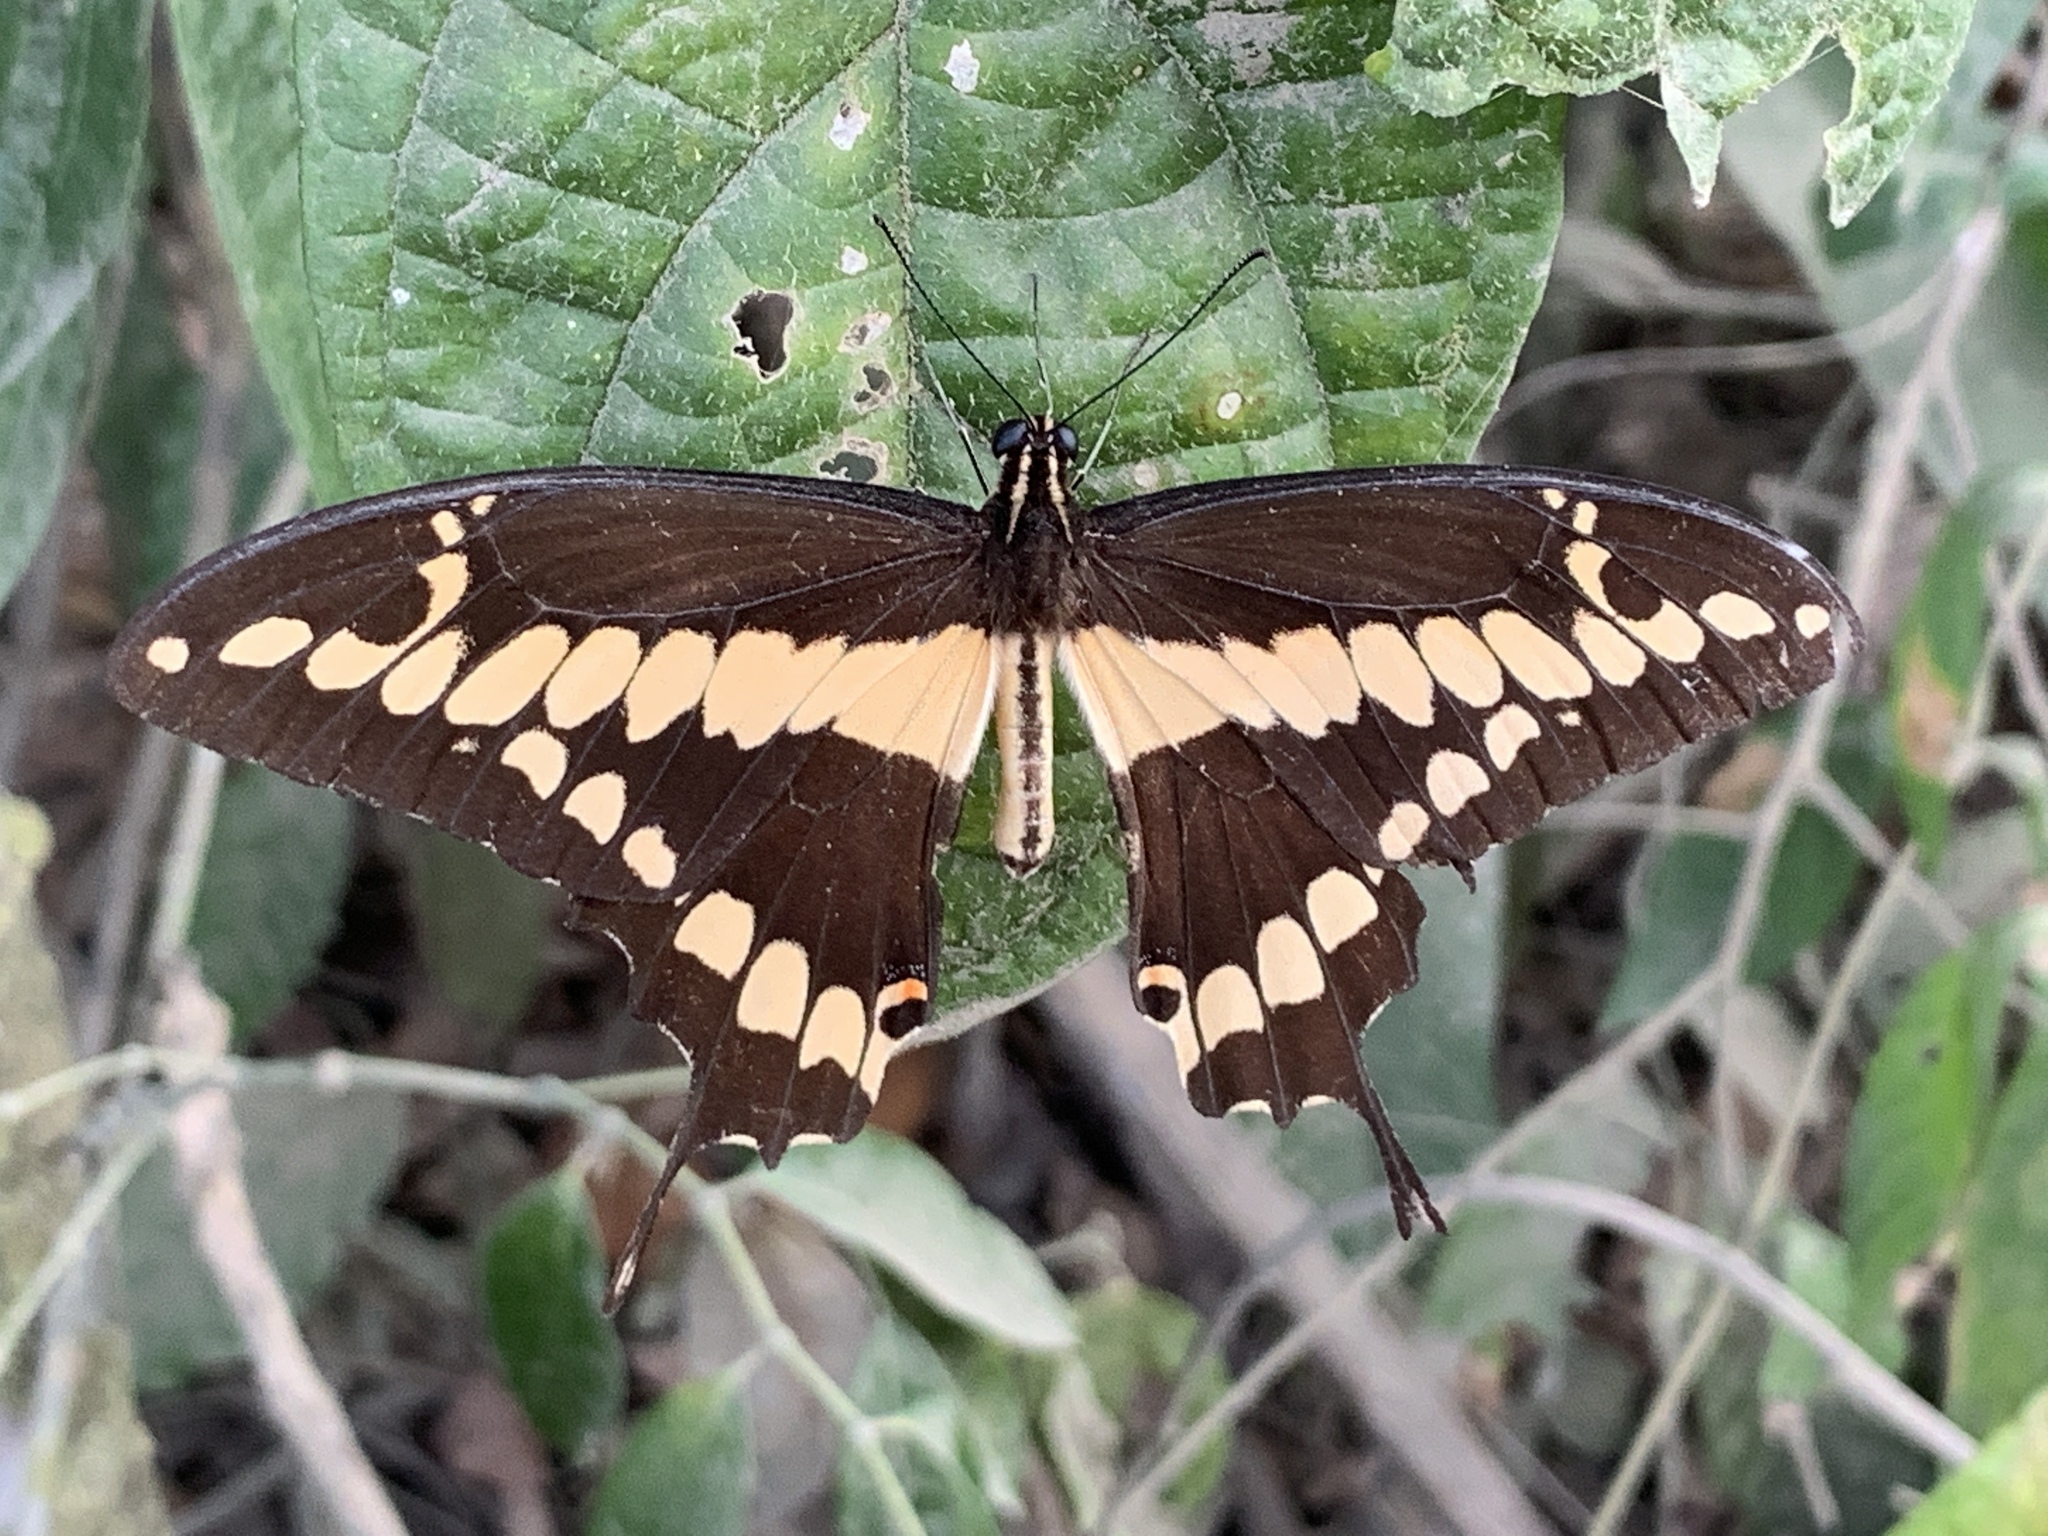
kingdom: Animalia
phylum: Arthropoda
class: Insecta
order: Lepidoptera
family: Papilionidae
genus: Papilio
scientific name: Papilio rumiko
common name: Western giant swallowtail
